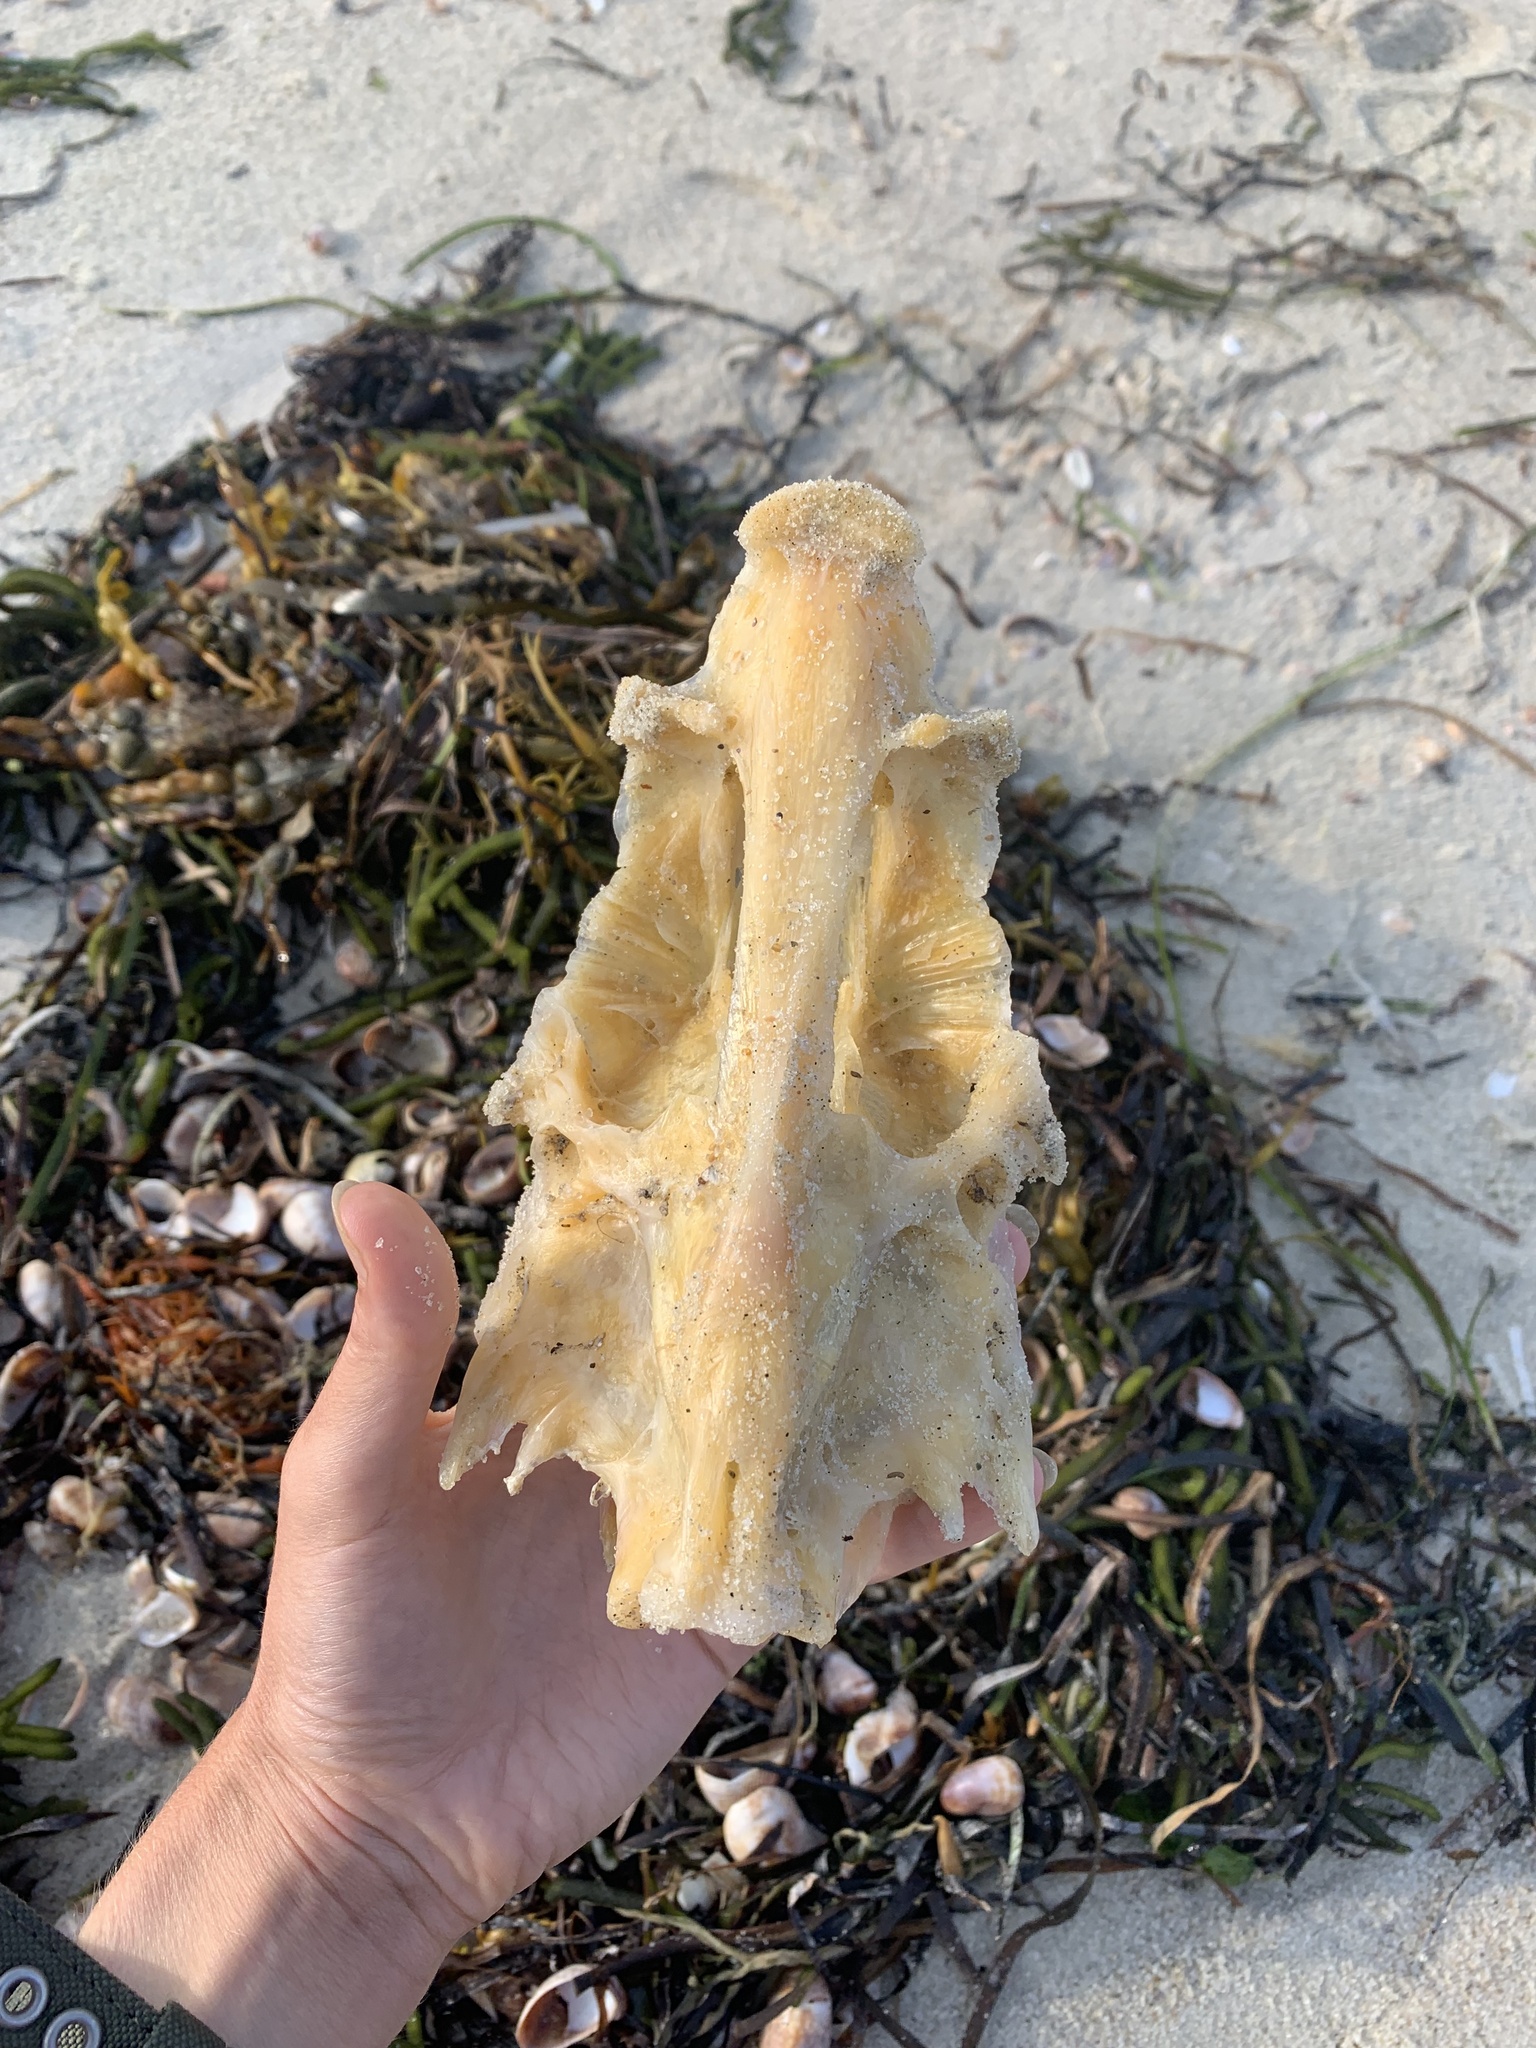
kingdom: Animalia
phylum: Chordata
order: Perciformes
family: Moronidae
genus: Morone
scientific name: Morone saxatilis
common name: Striped bass
